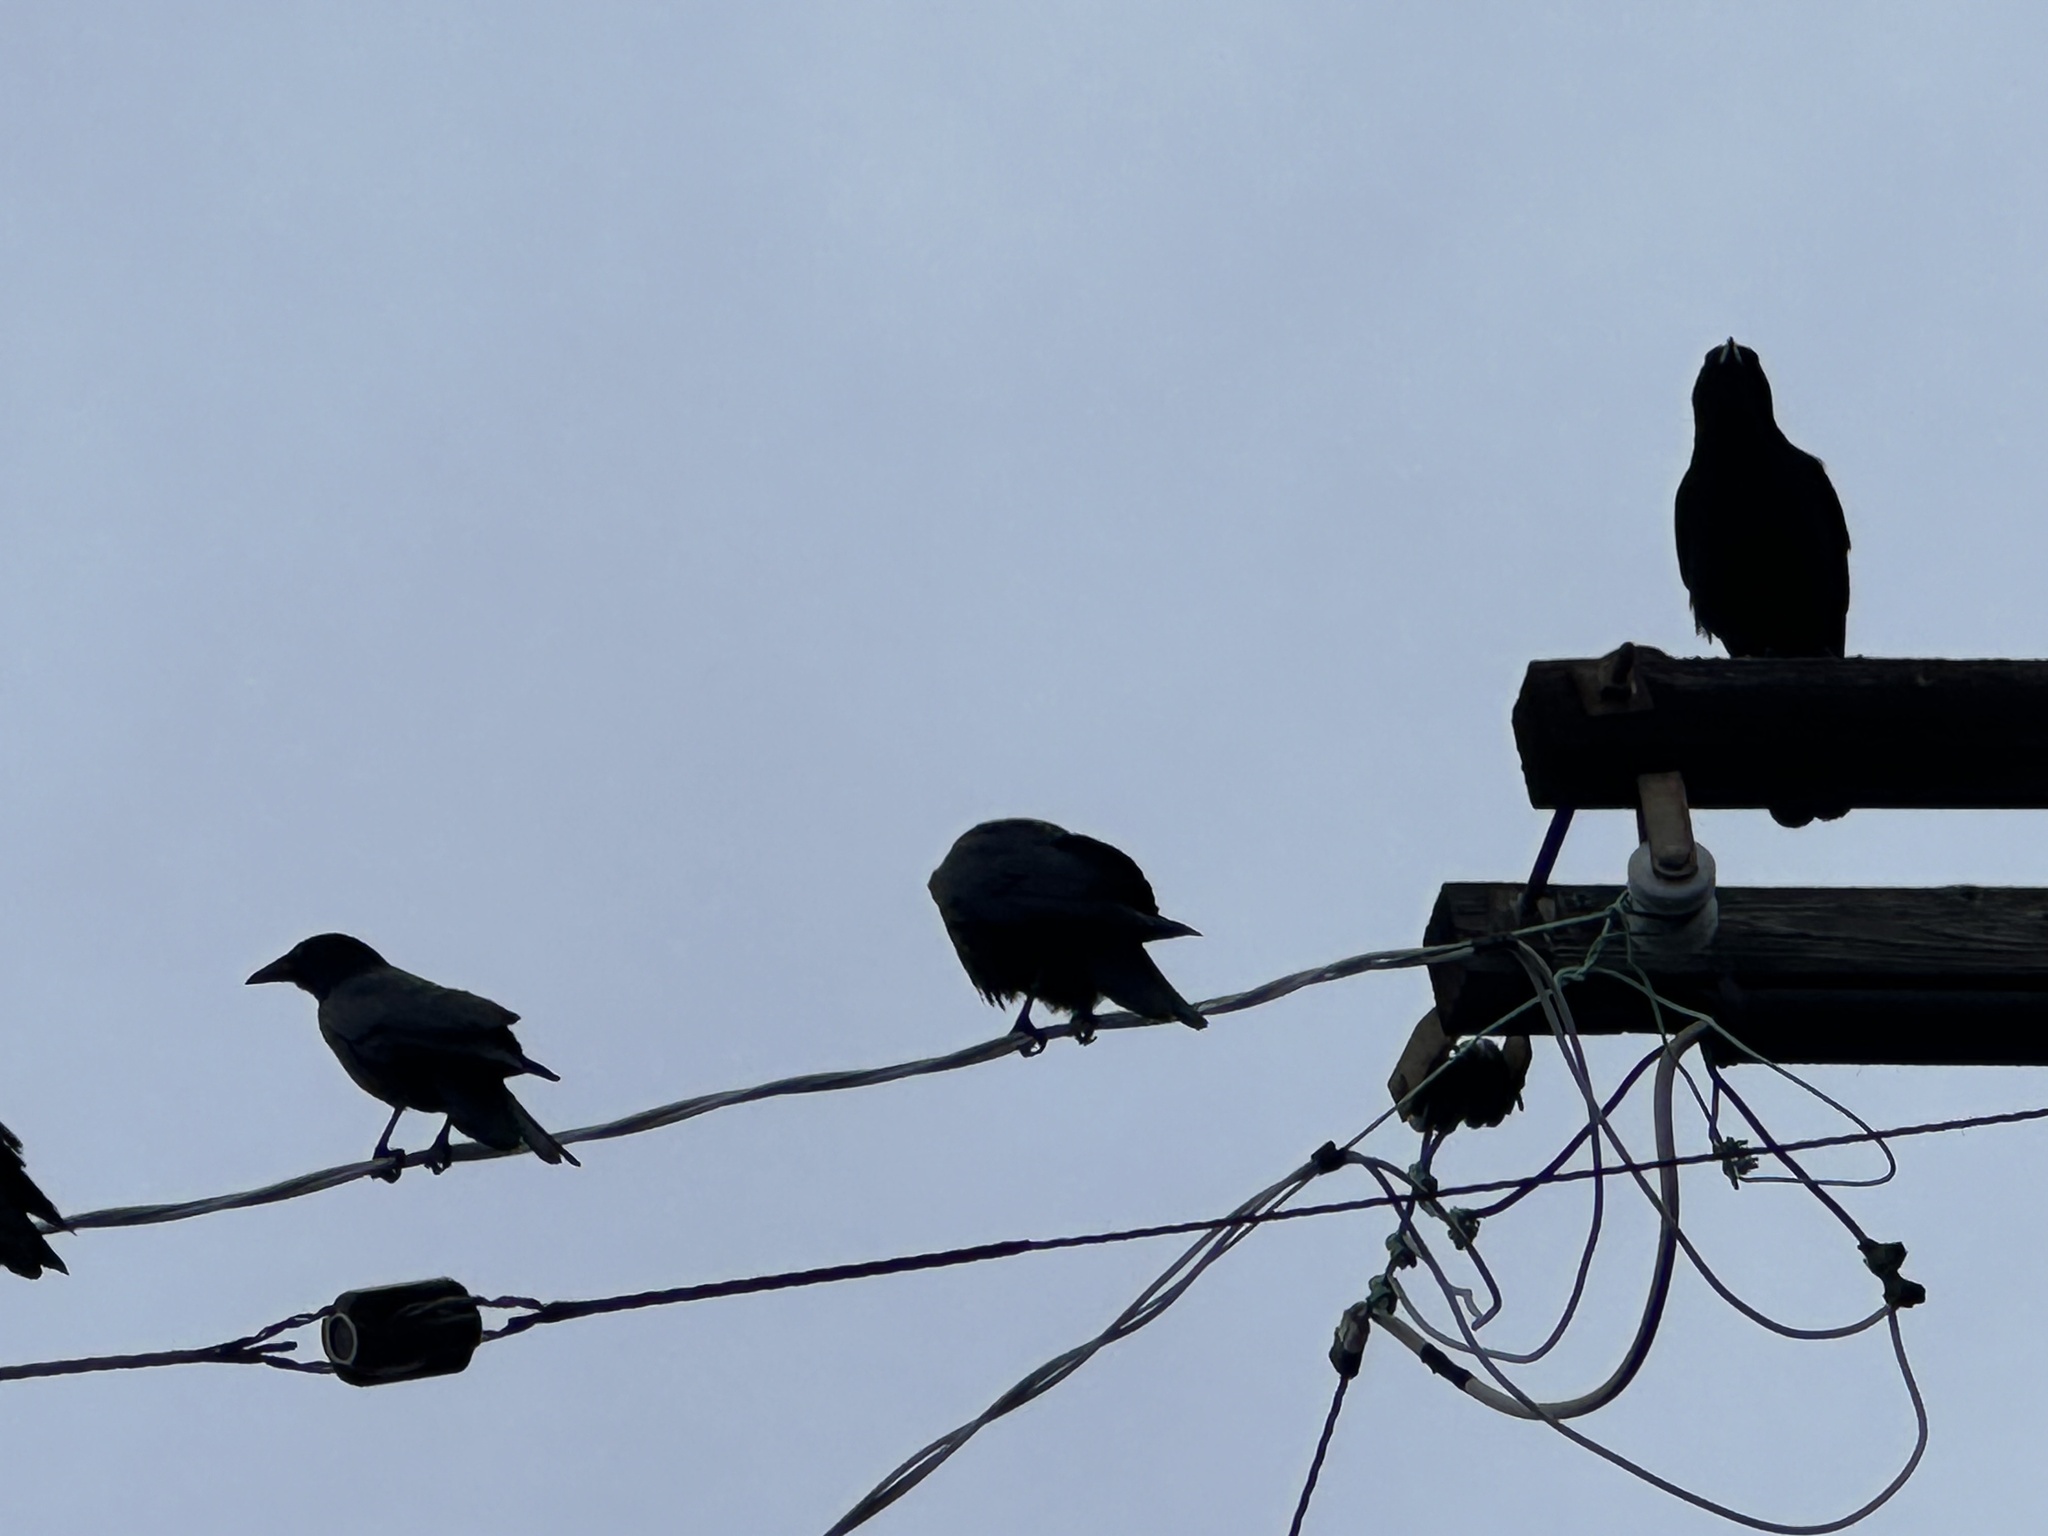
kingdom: Animalia
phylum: Chordata
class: Aves
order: Passeriformes
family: Corvidae
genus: Corvus
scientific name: Corvus brachyrhynchos
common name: American crow
